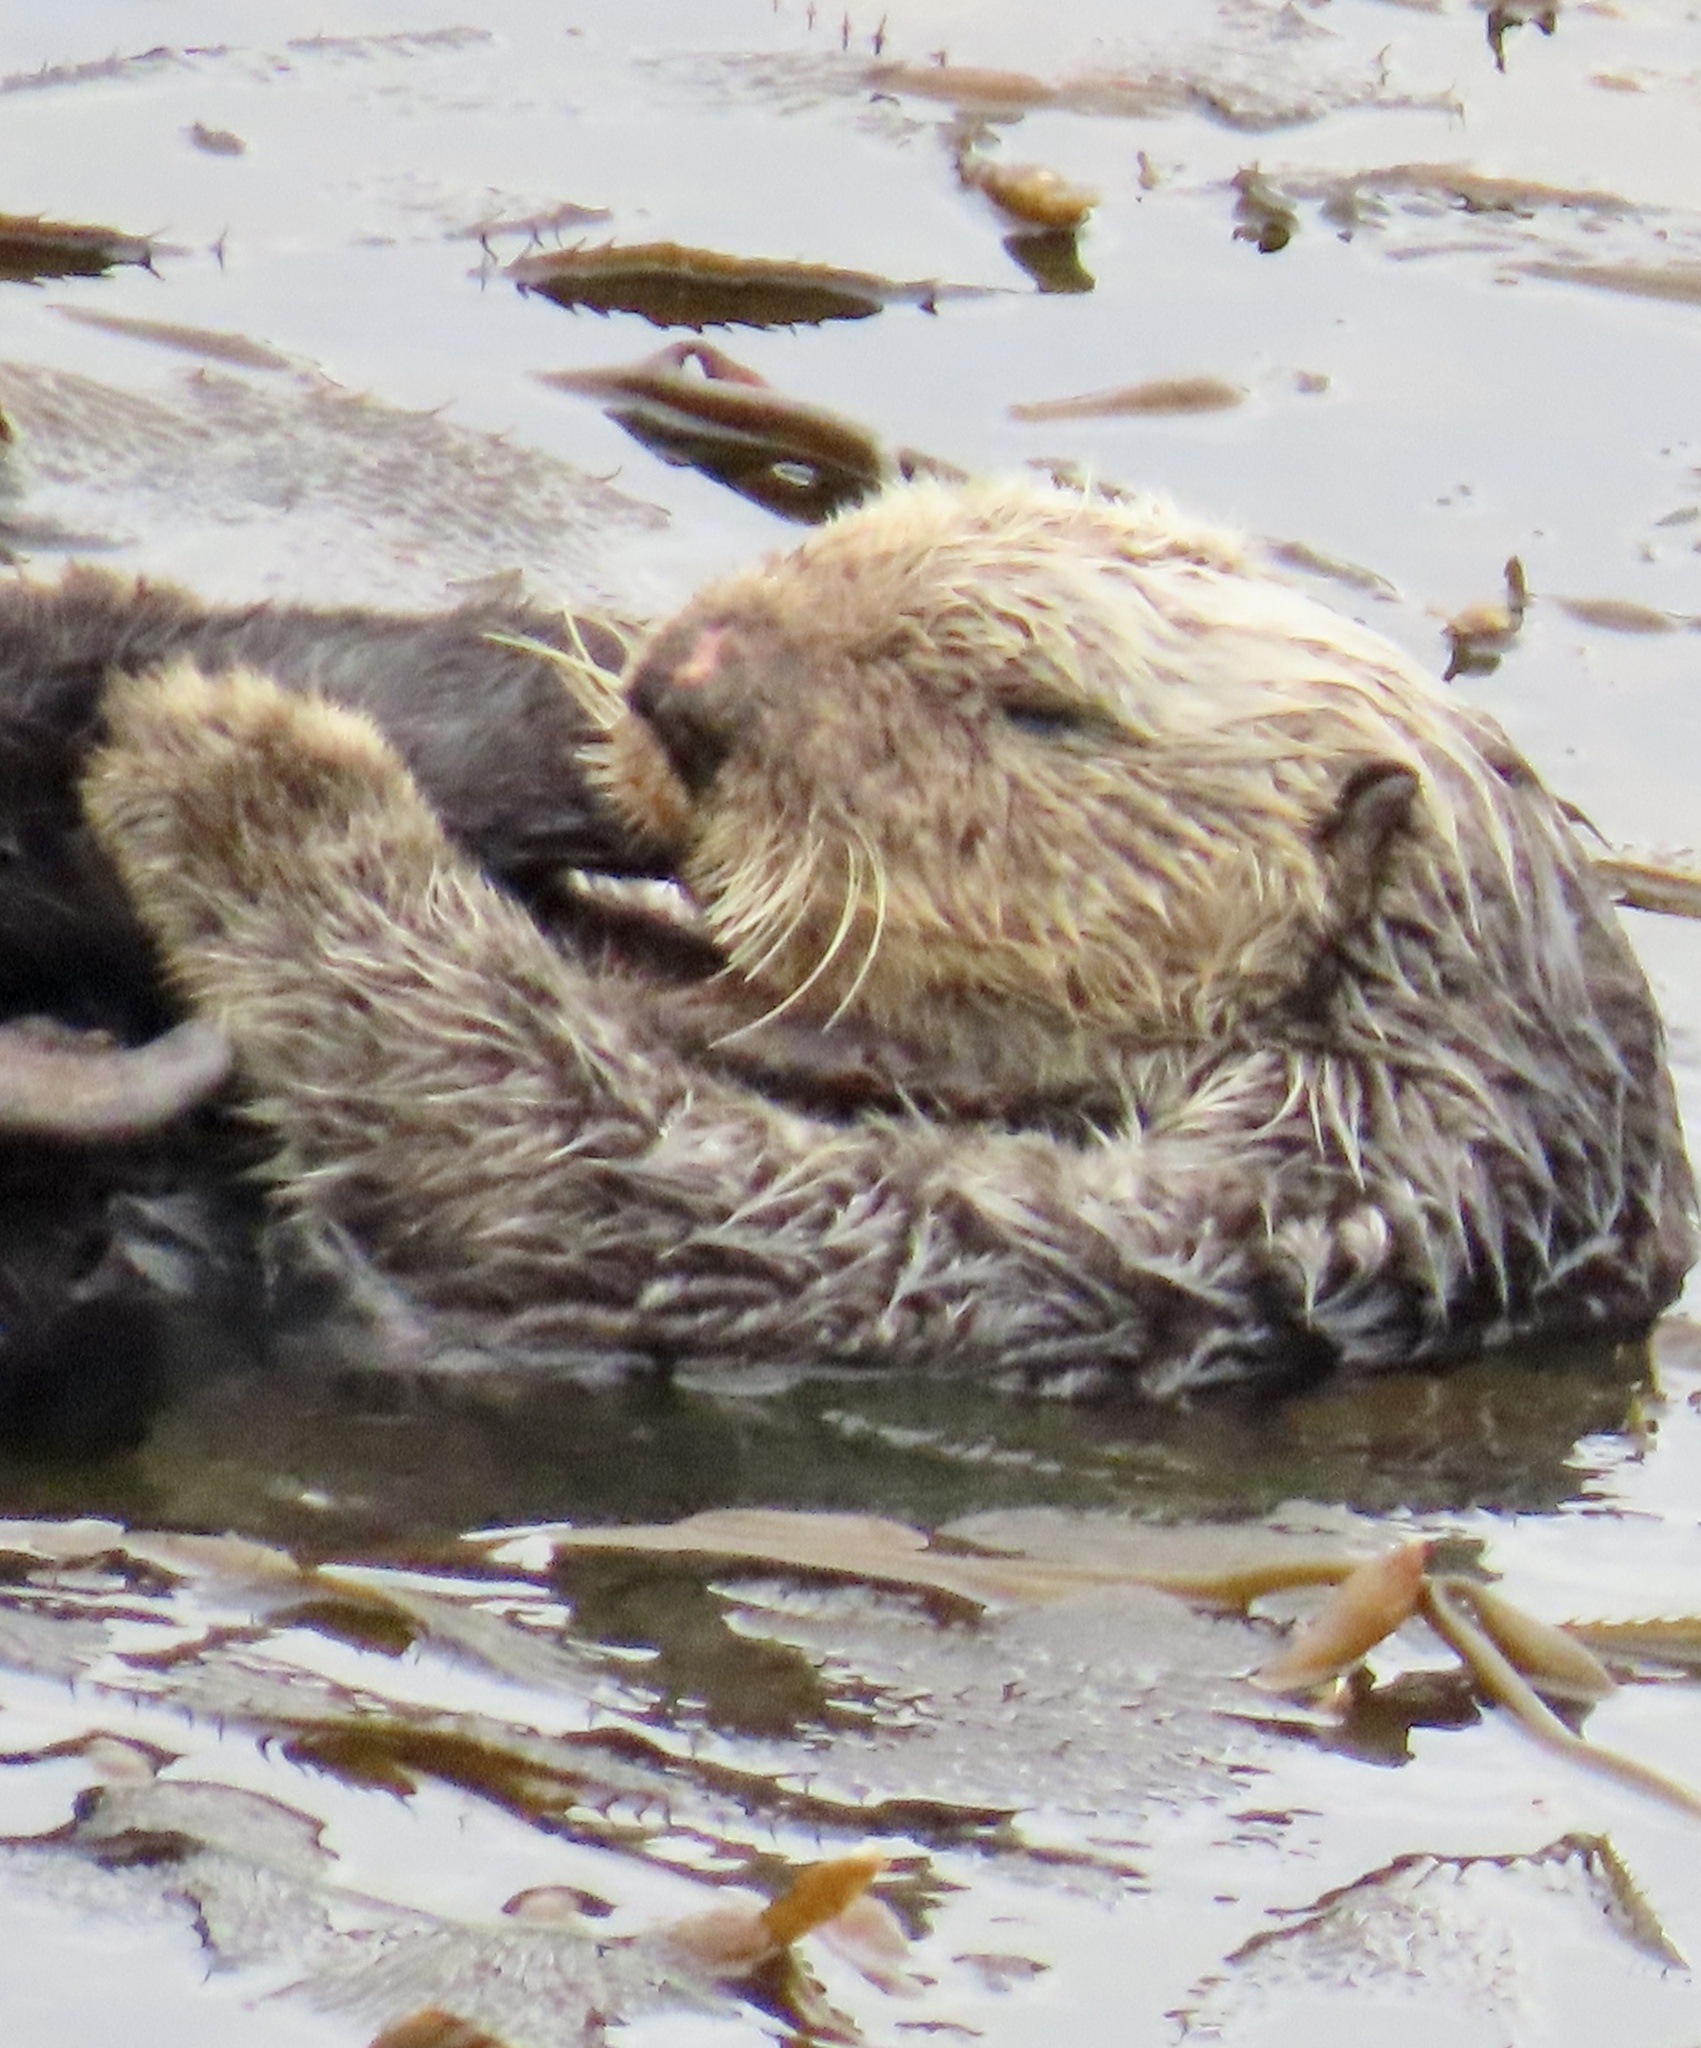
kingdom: Animalia
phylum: Chordata
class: Mammalia
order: Carnivora
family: Mustelidae
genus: Enhydra
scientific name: Enhydra lutris
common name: Sea otter
